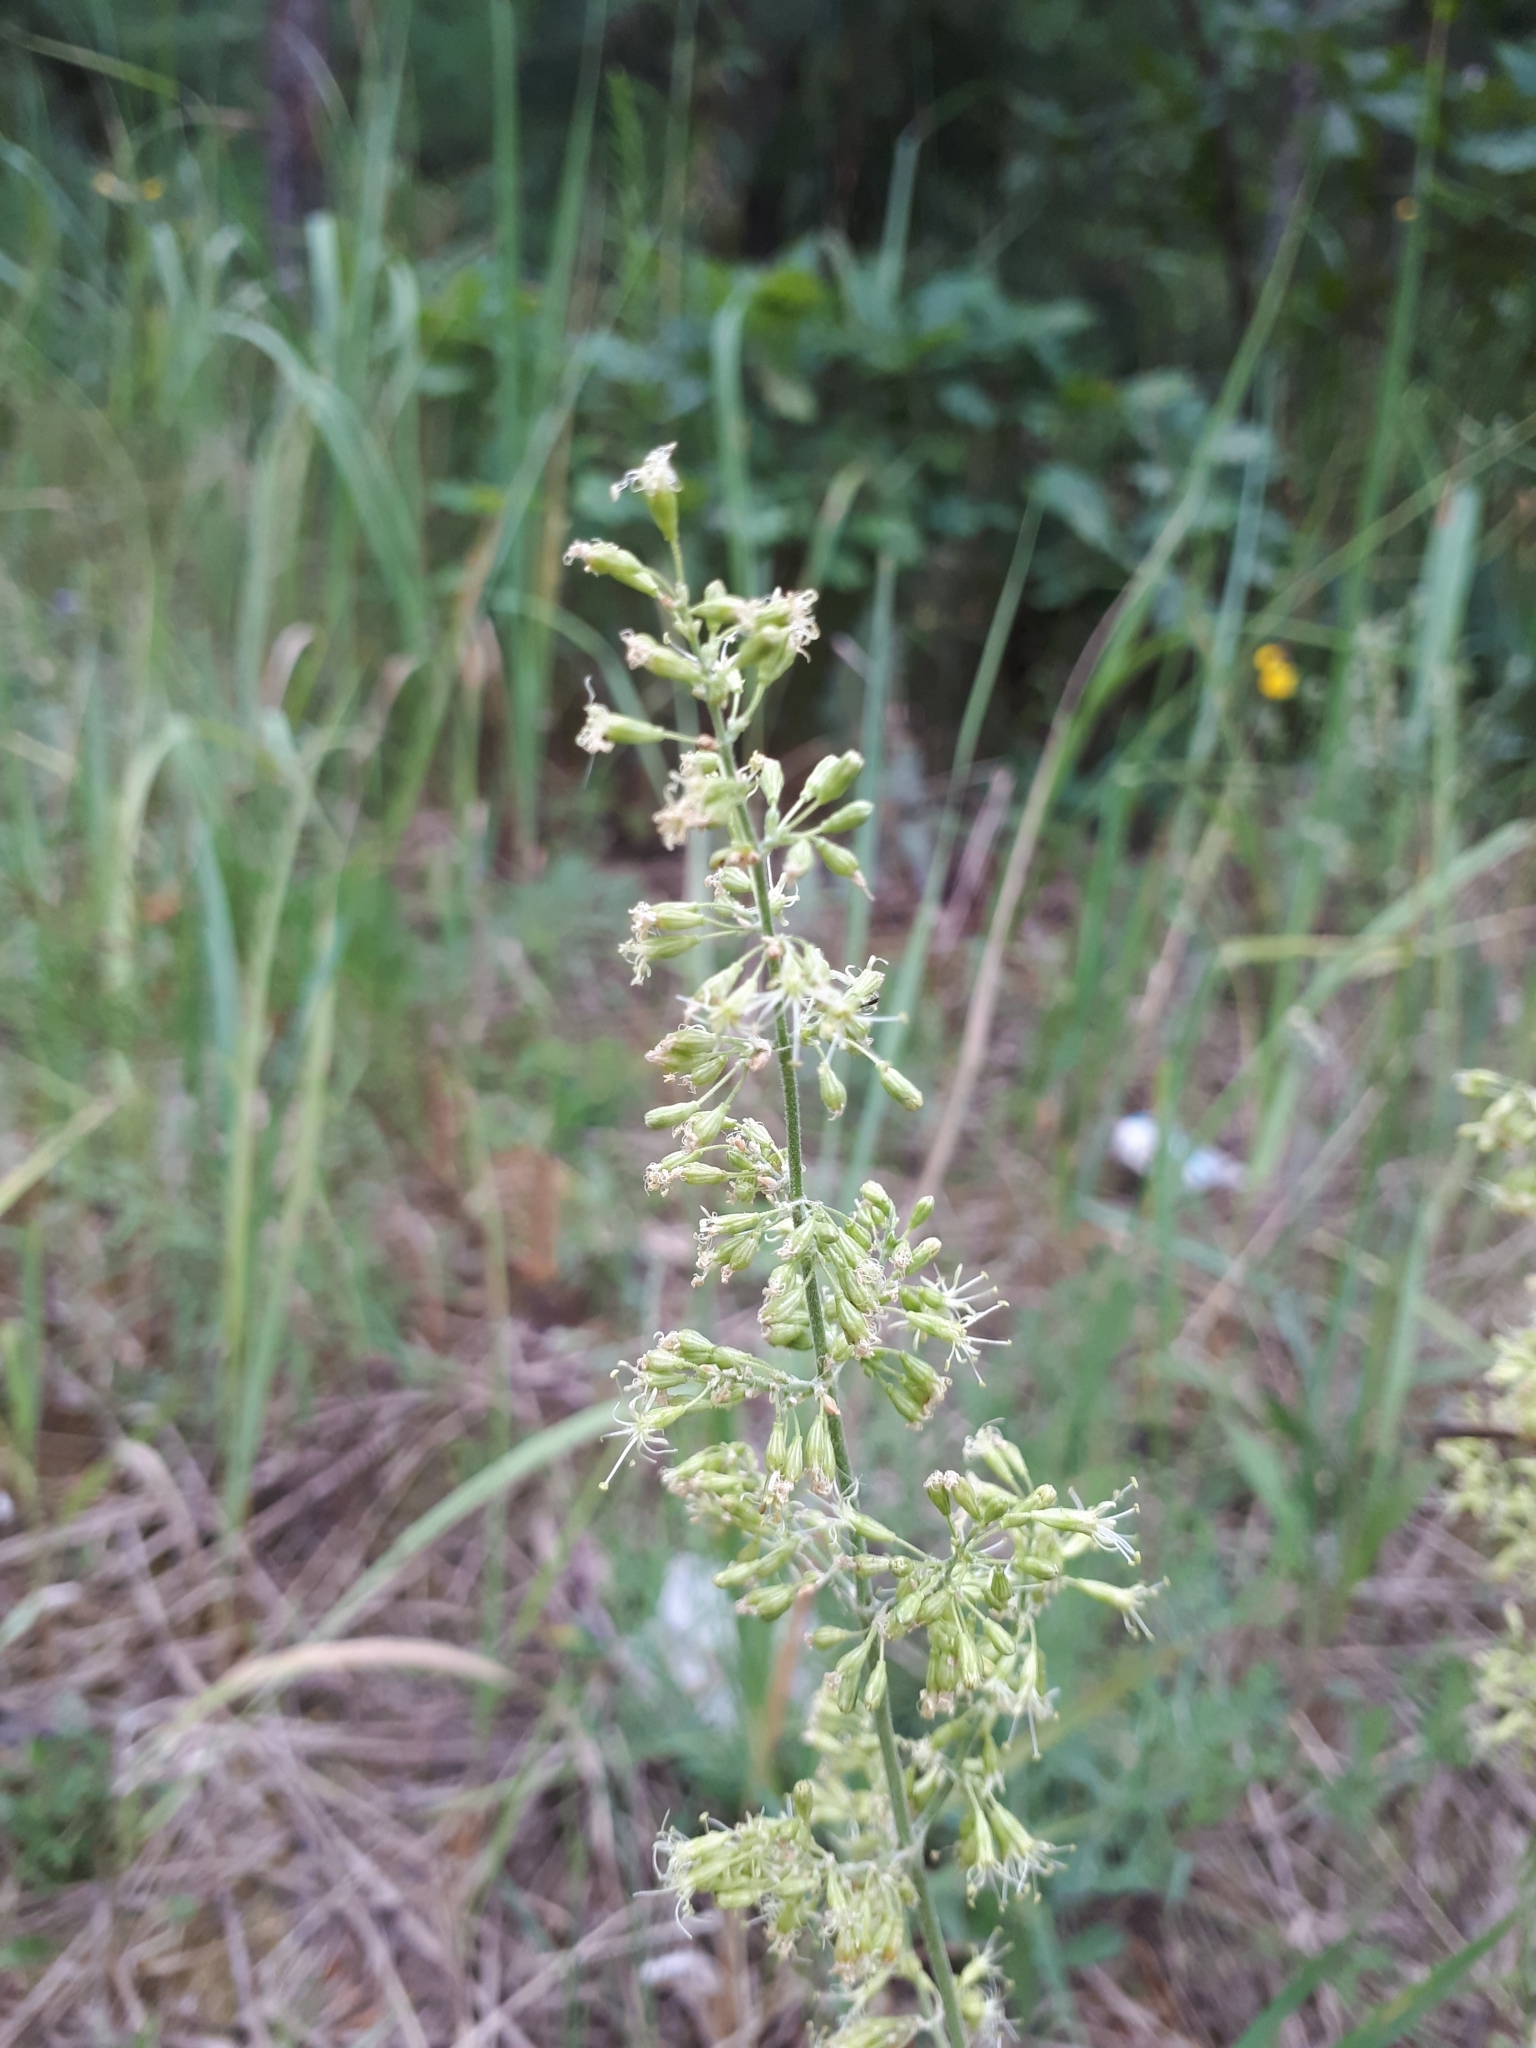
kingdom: Plantae
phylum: Tracheophyta
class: Magnoliopsida
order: Caryophyllales
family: Caryophyllaceae
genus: Silene
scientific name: Silene borysthenica
